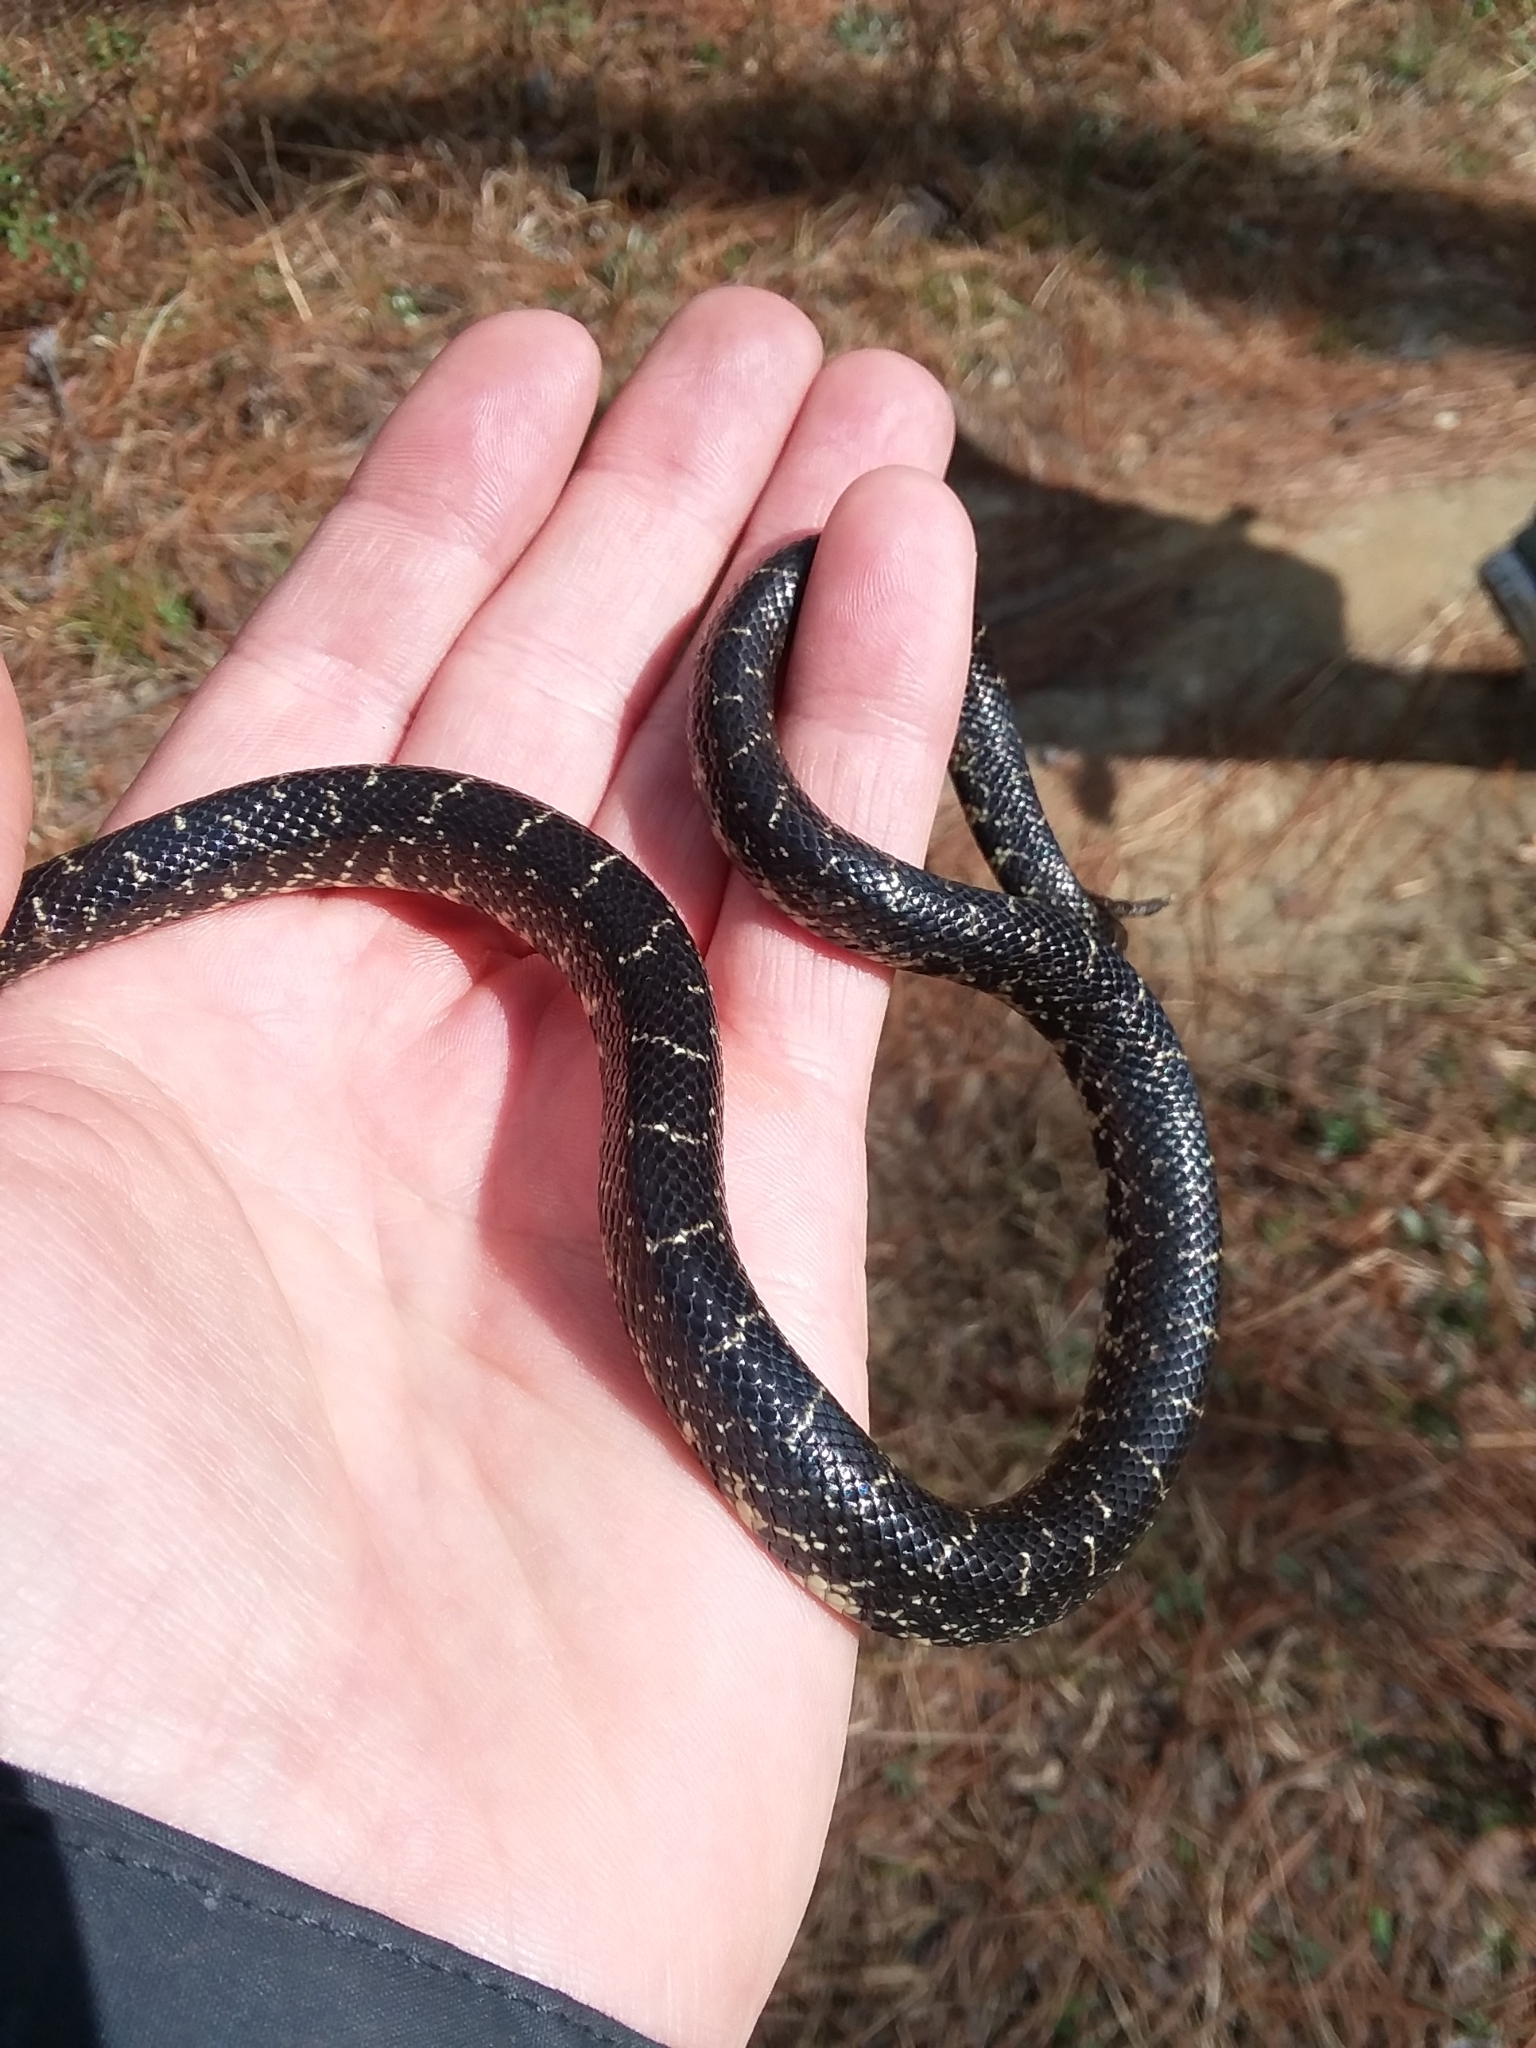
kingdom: Animalia
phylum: Chordata
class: Squamata
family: Colubridae
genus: Lampropeltis
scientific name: Lampropeltis nigra
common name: Black kingsnake
